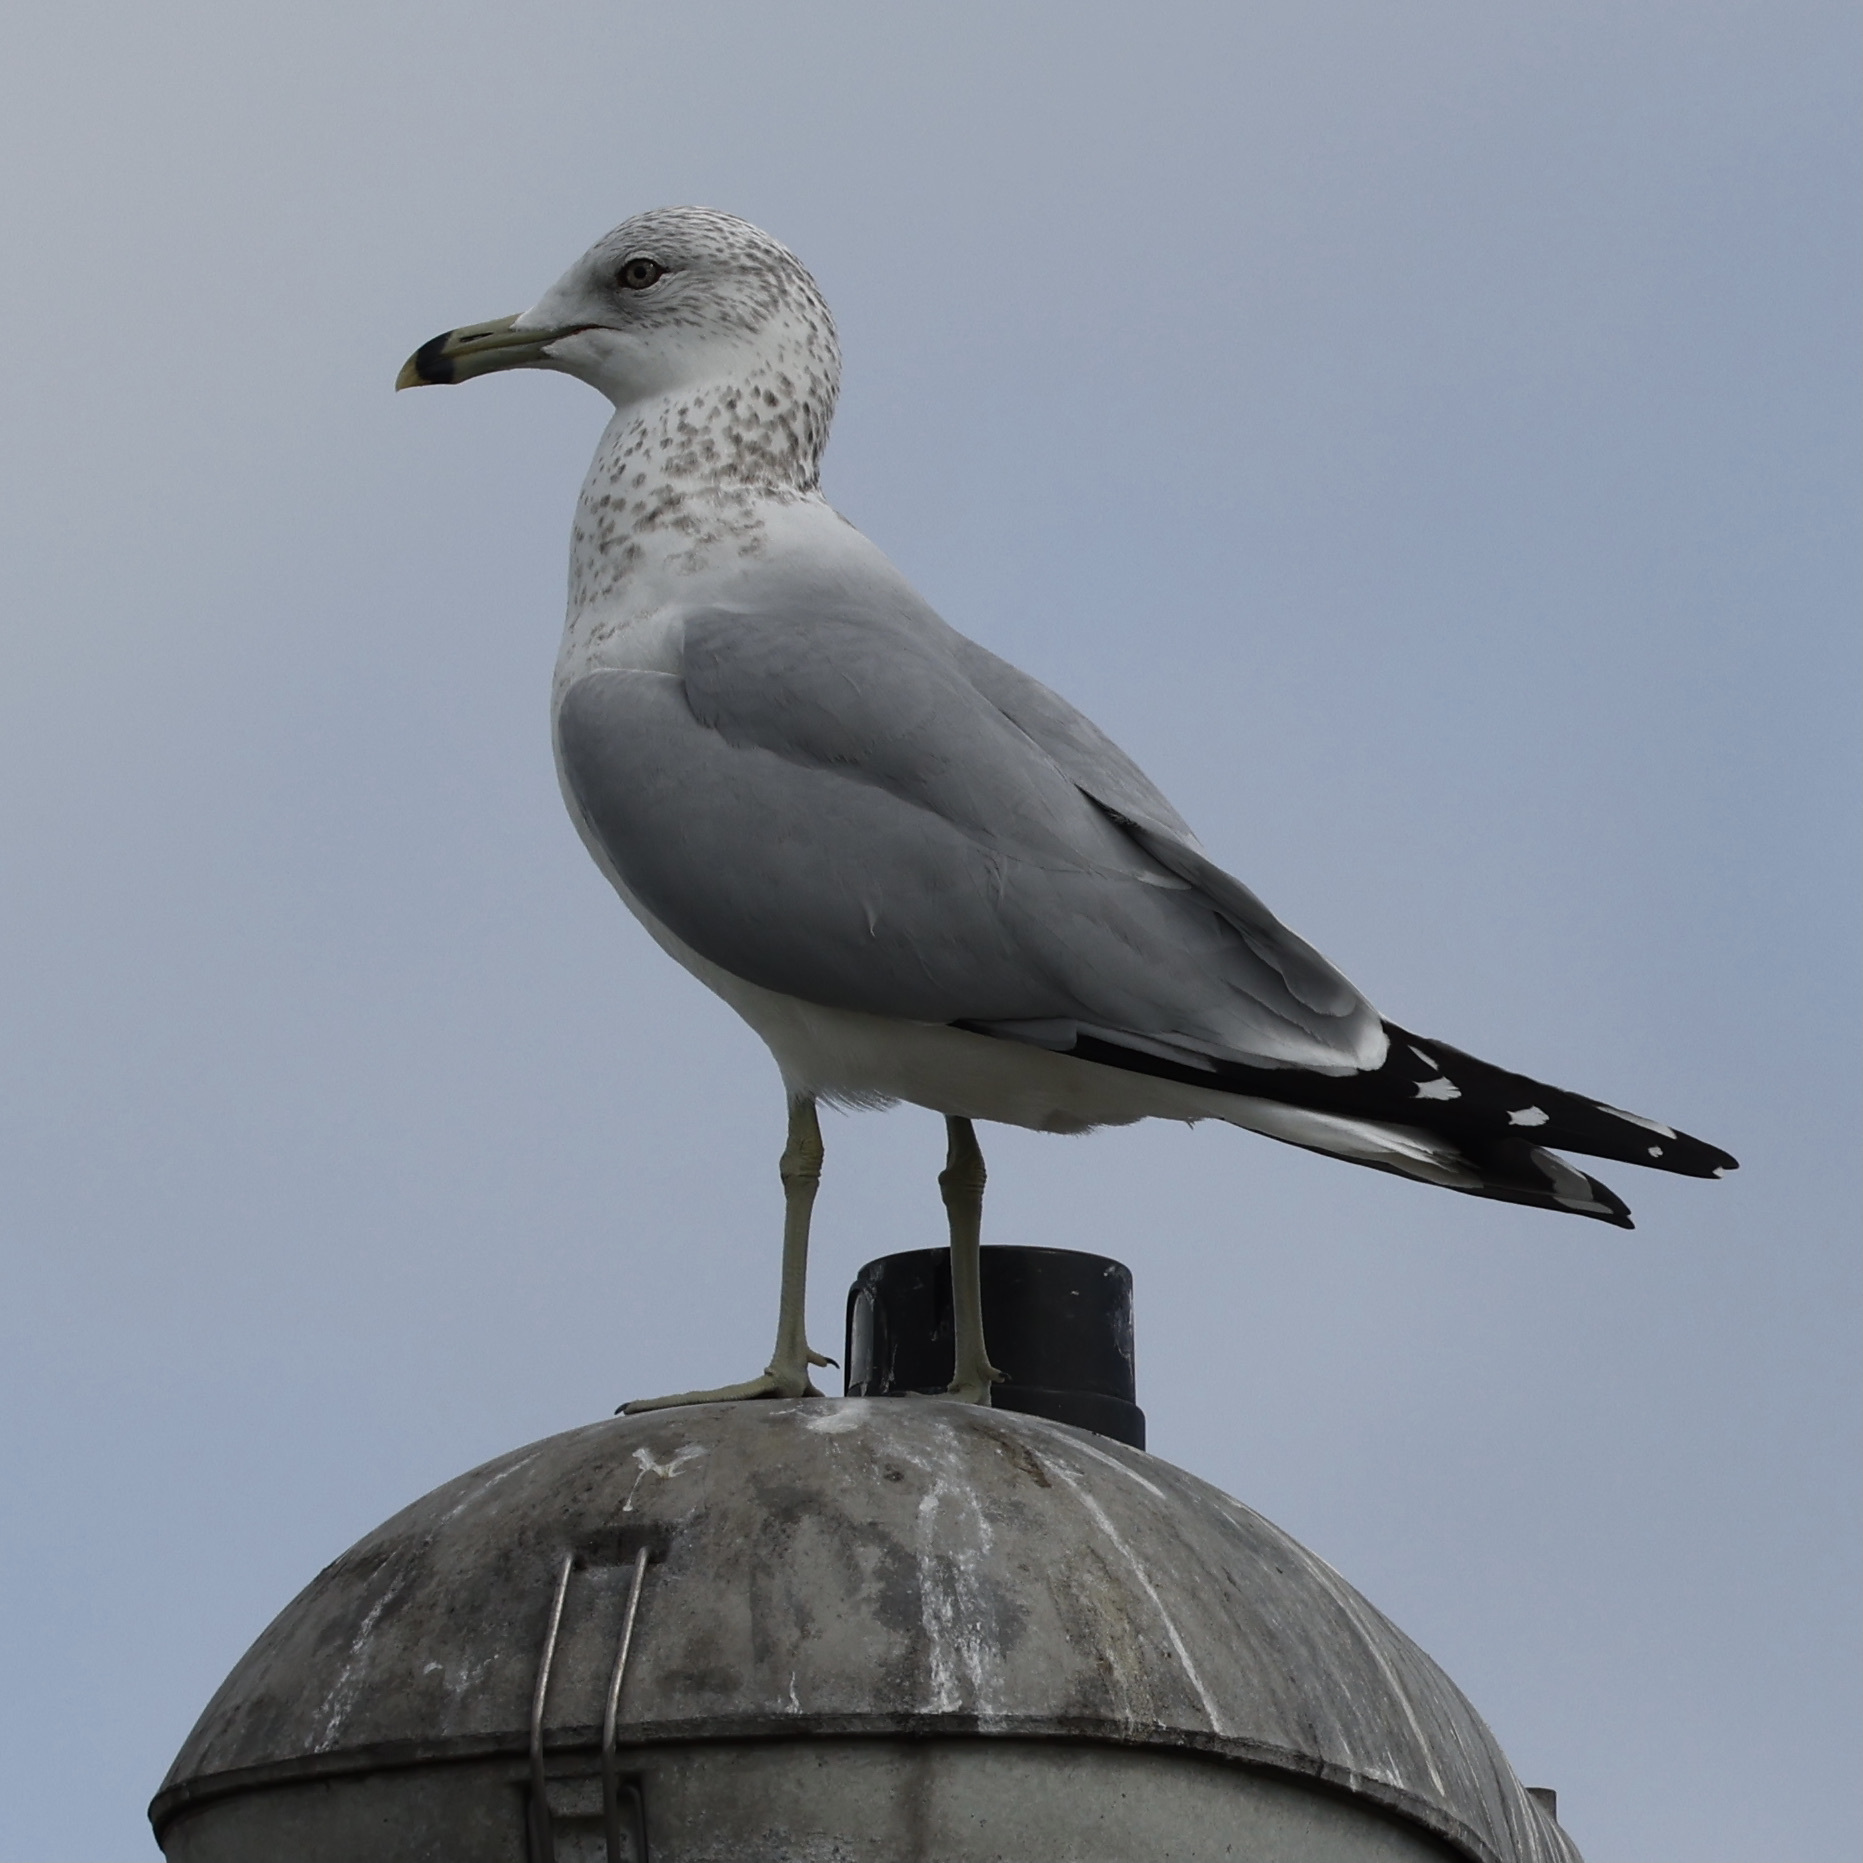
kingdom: Animalia
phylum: Chordata
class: Aves
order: Charadriiformes
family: Laridae
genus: Larus
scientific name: Larus delawarensis
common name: Ring-billed gull
